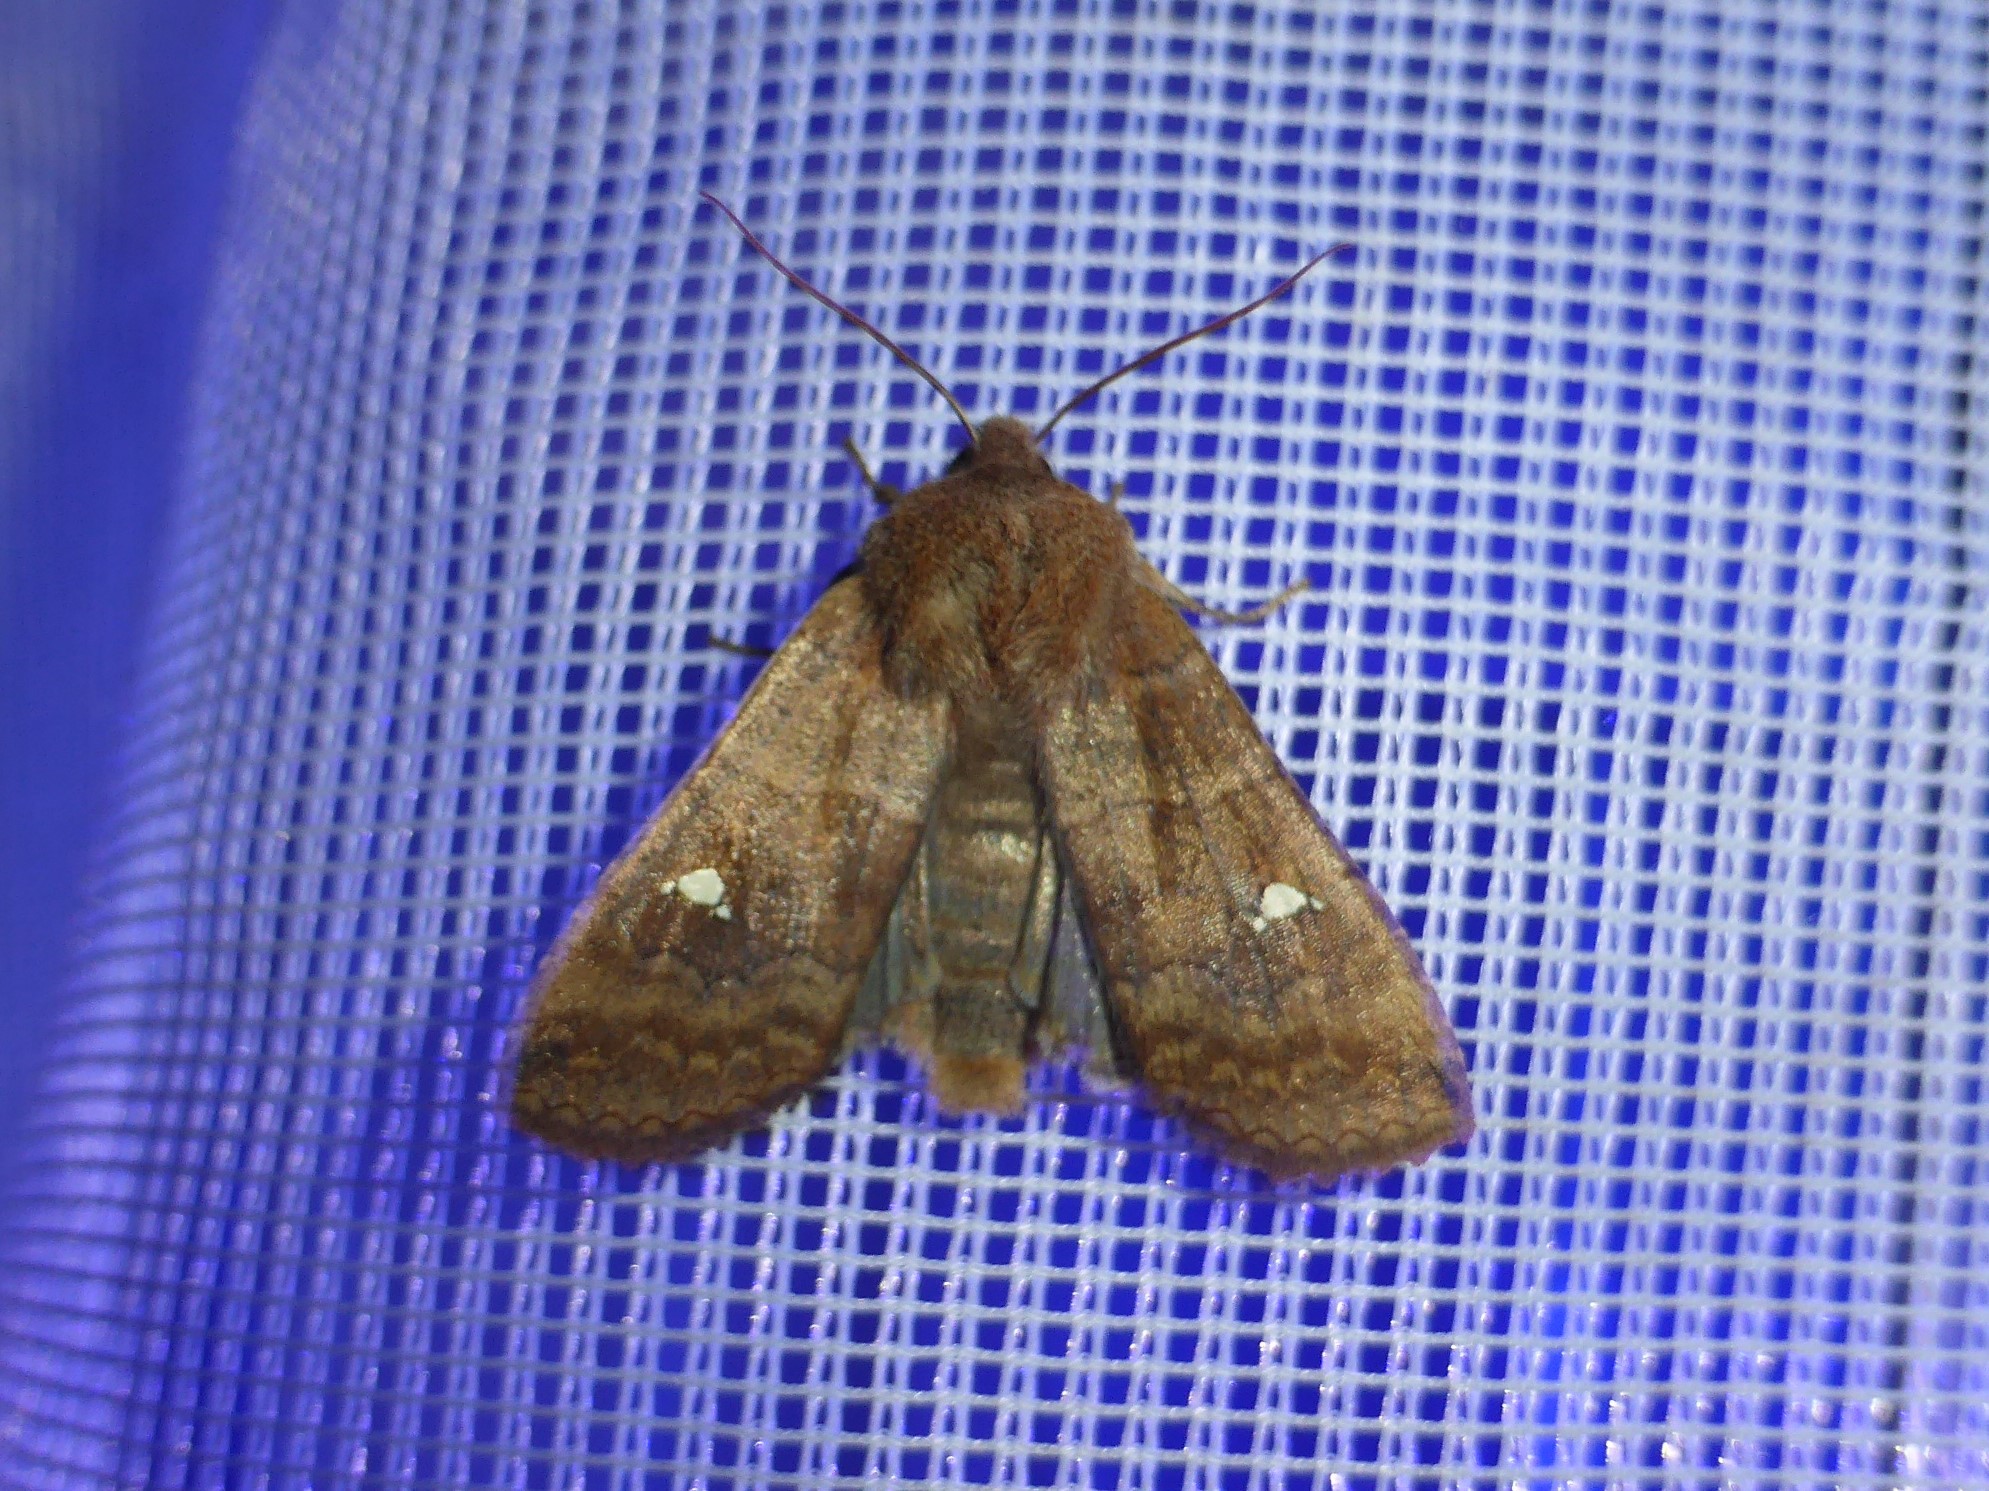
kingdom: Animalia
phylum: Arthropoda
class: Insecta
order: Lepidoptera
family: Noctuidae
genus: Eupsilia
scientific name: Eupsilia transversa
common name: Satellite
